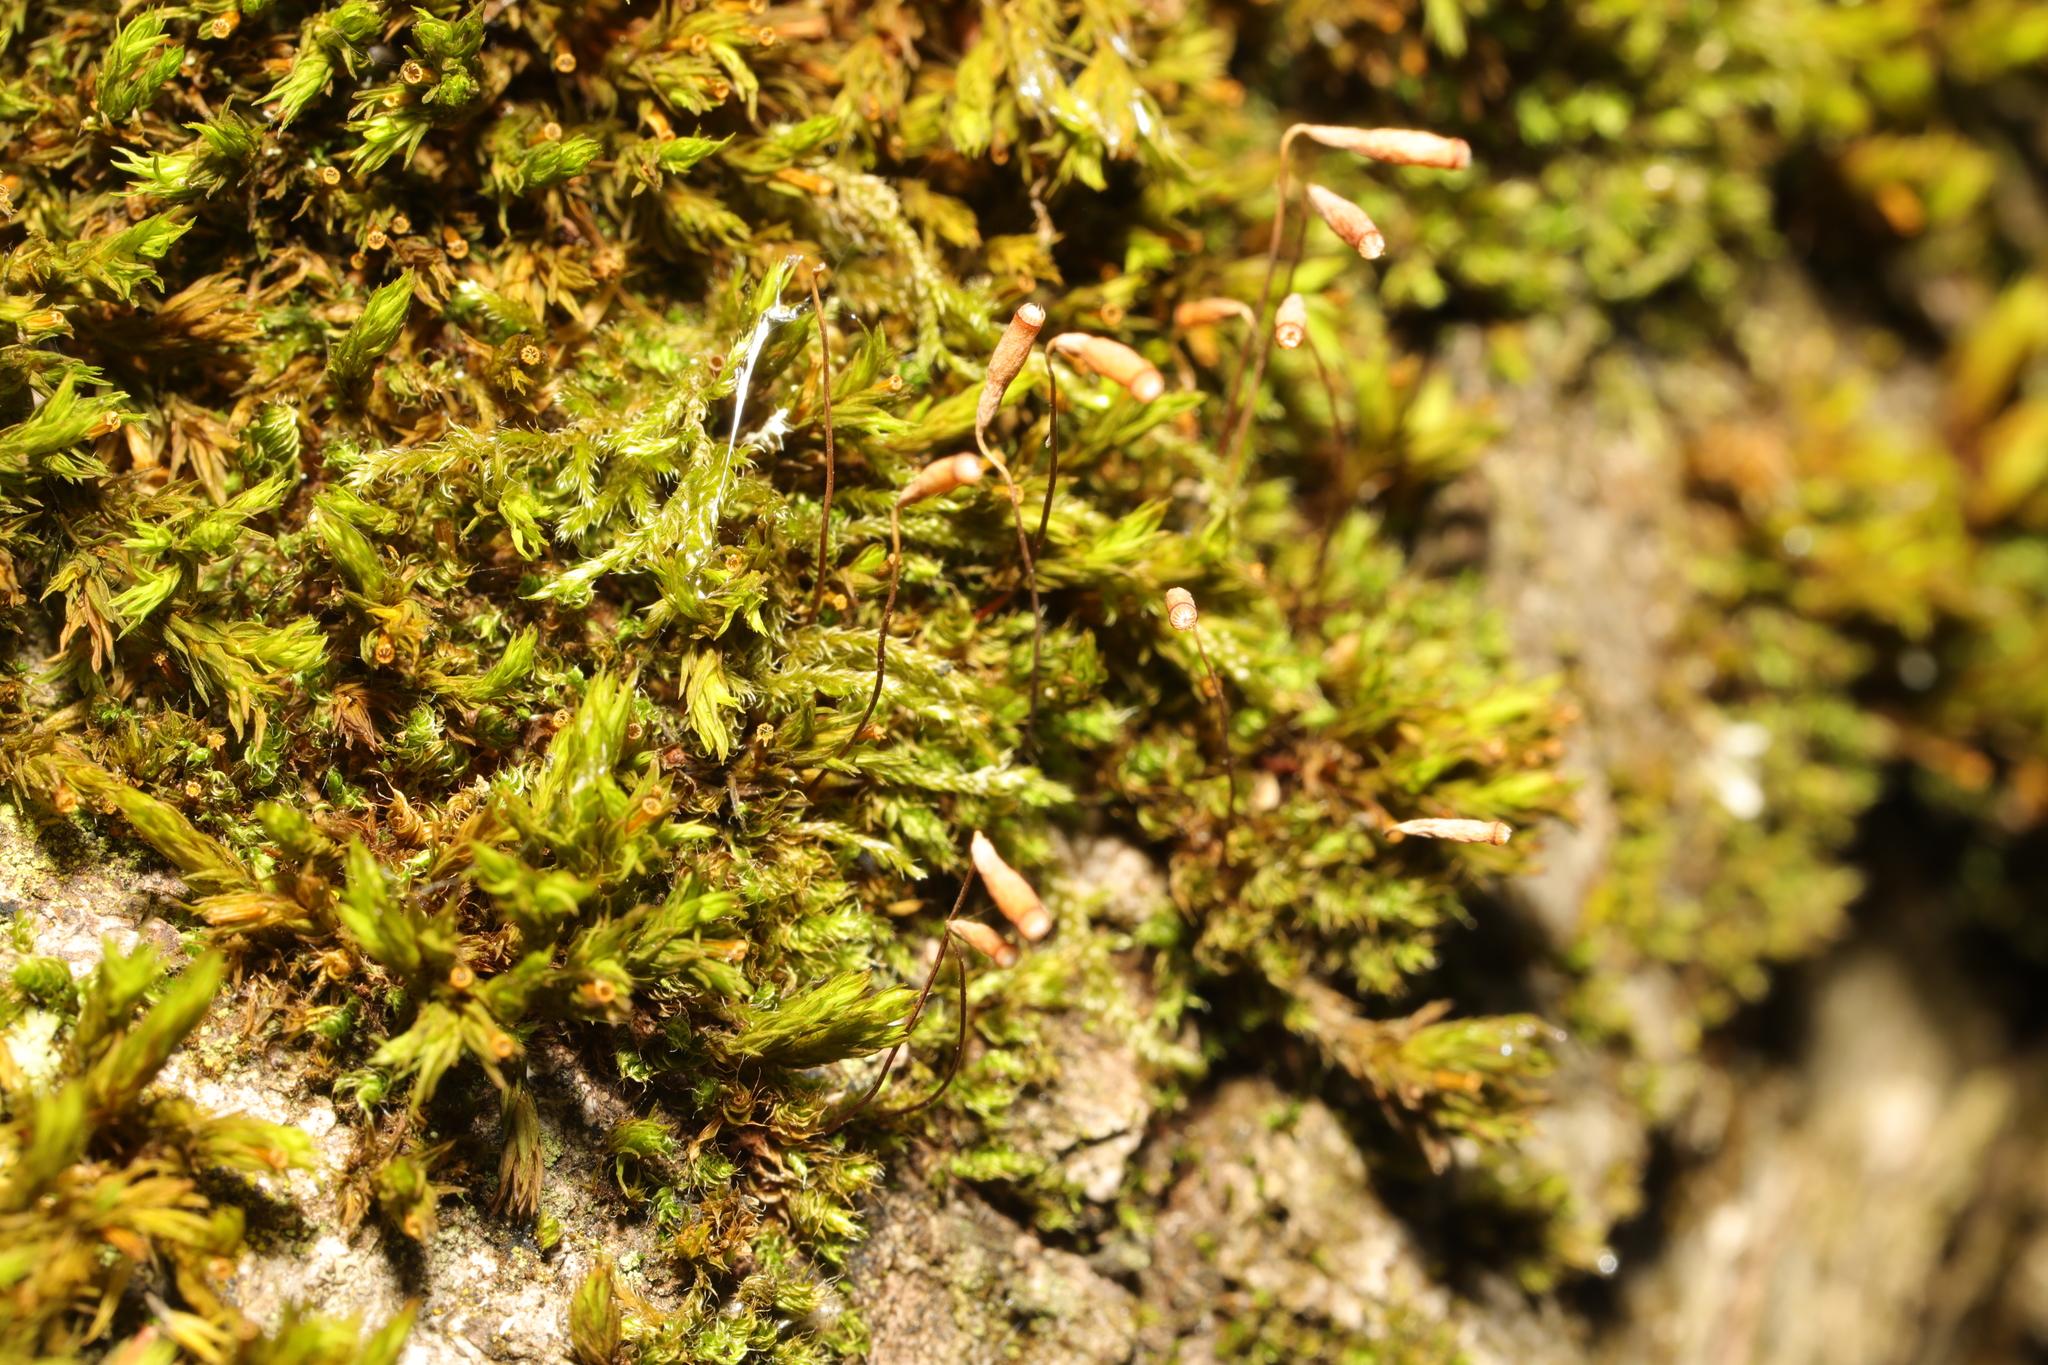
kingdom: Plantae
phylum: Bryophyta
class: Bryopsida
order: Orthotrichales
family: Orthotrichaceae
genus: Lewinskya
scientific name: Lewinskya affinis
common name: Wood bristle-moss
